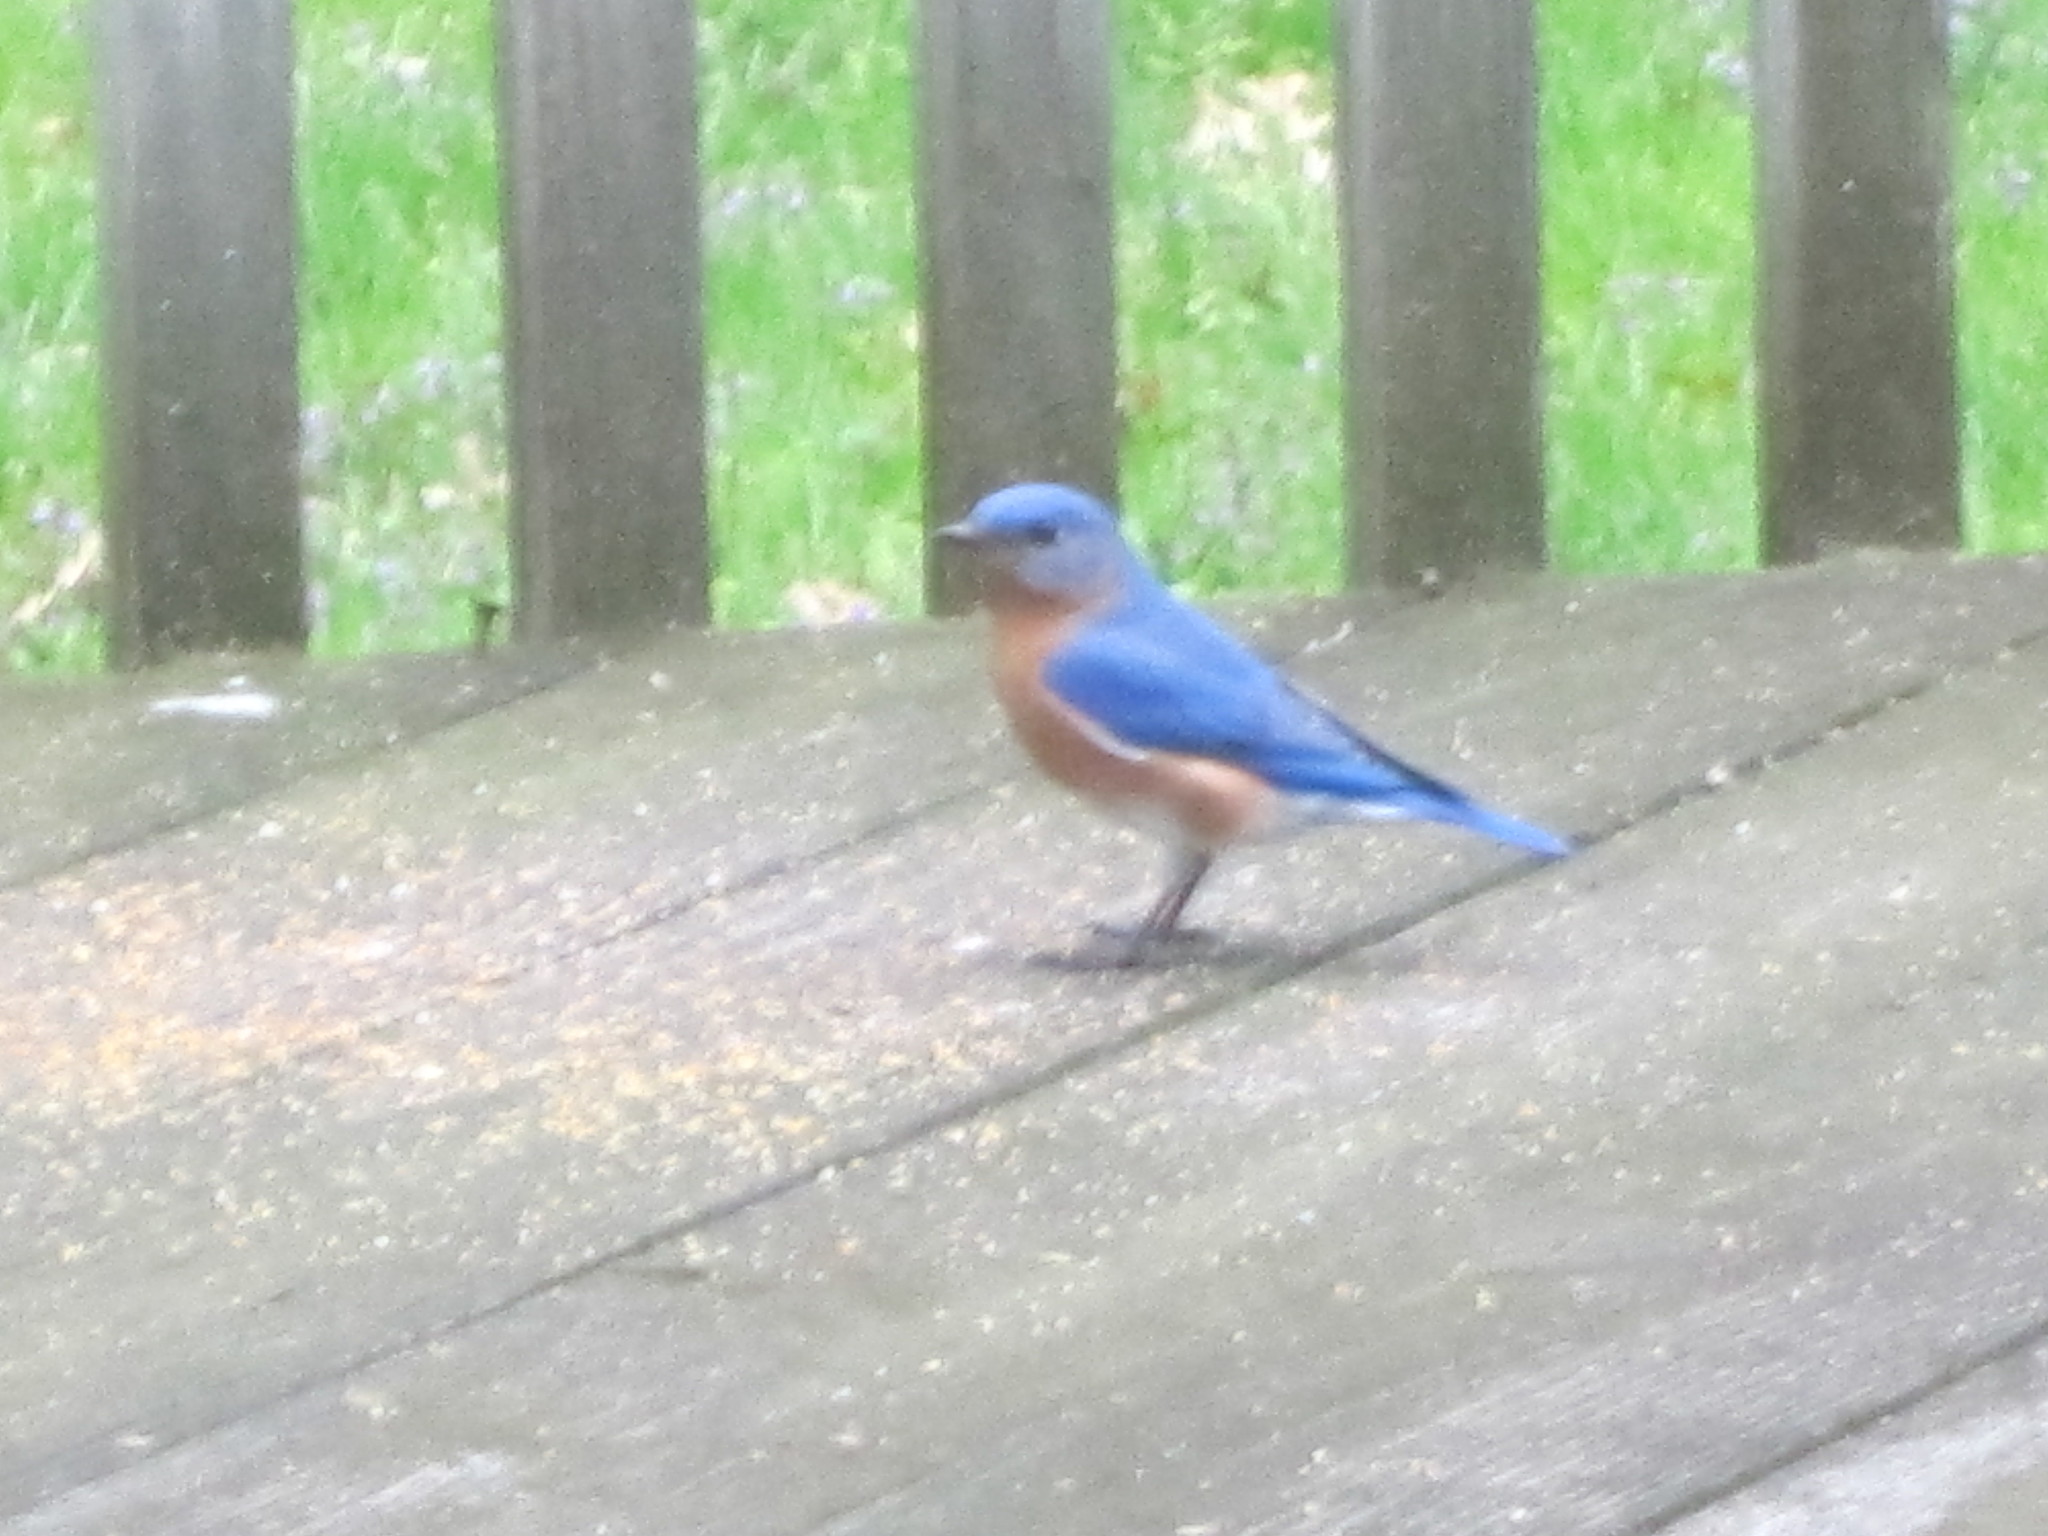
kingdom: Animalia
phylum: Chordata
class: Aves
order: Passeriformes
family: Turdidae
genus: Sialia
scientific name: Sialia sialis
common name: Eastern bluebird
